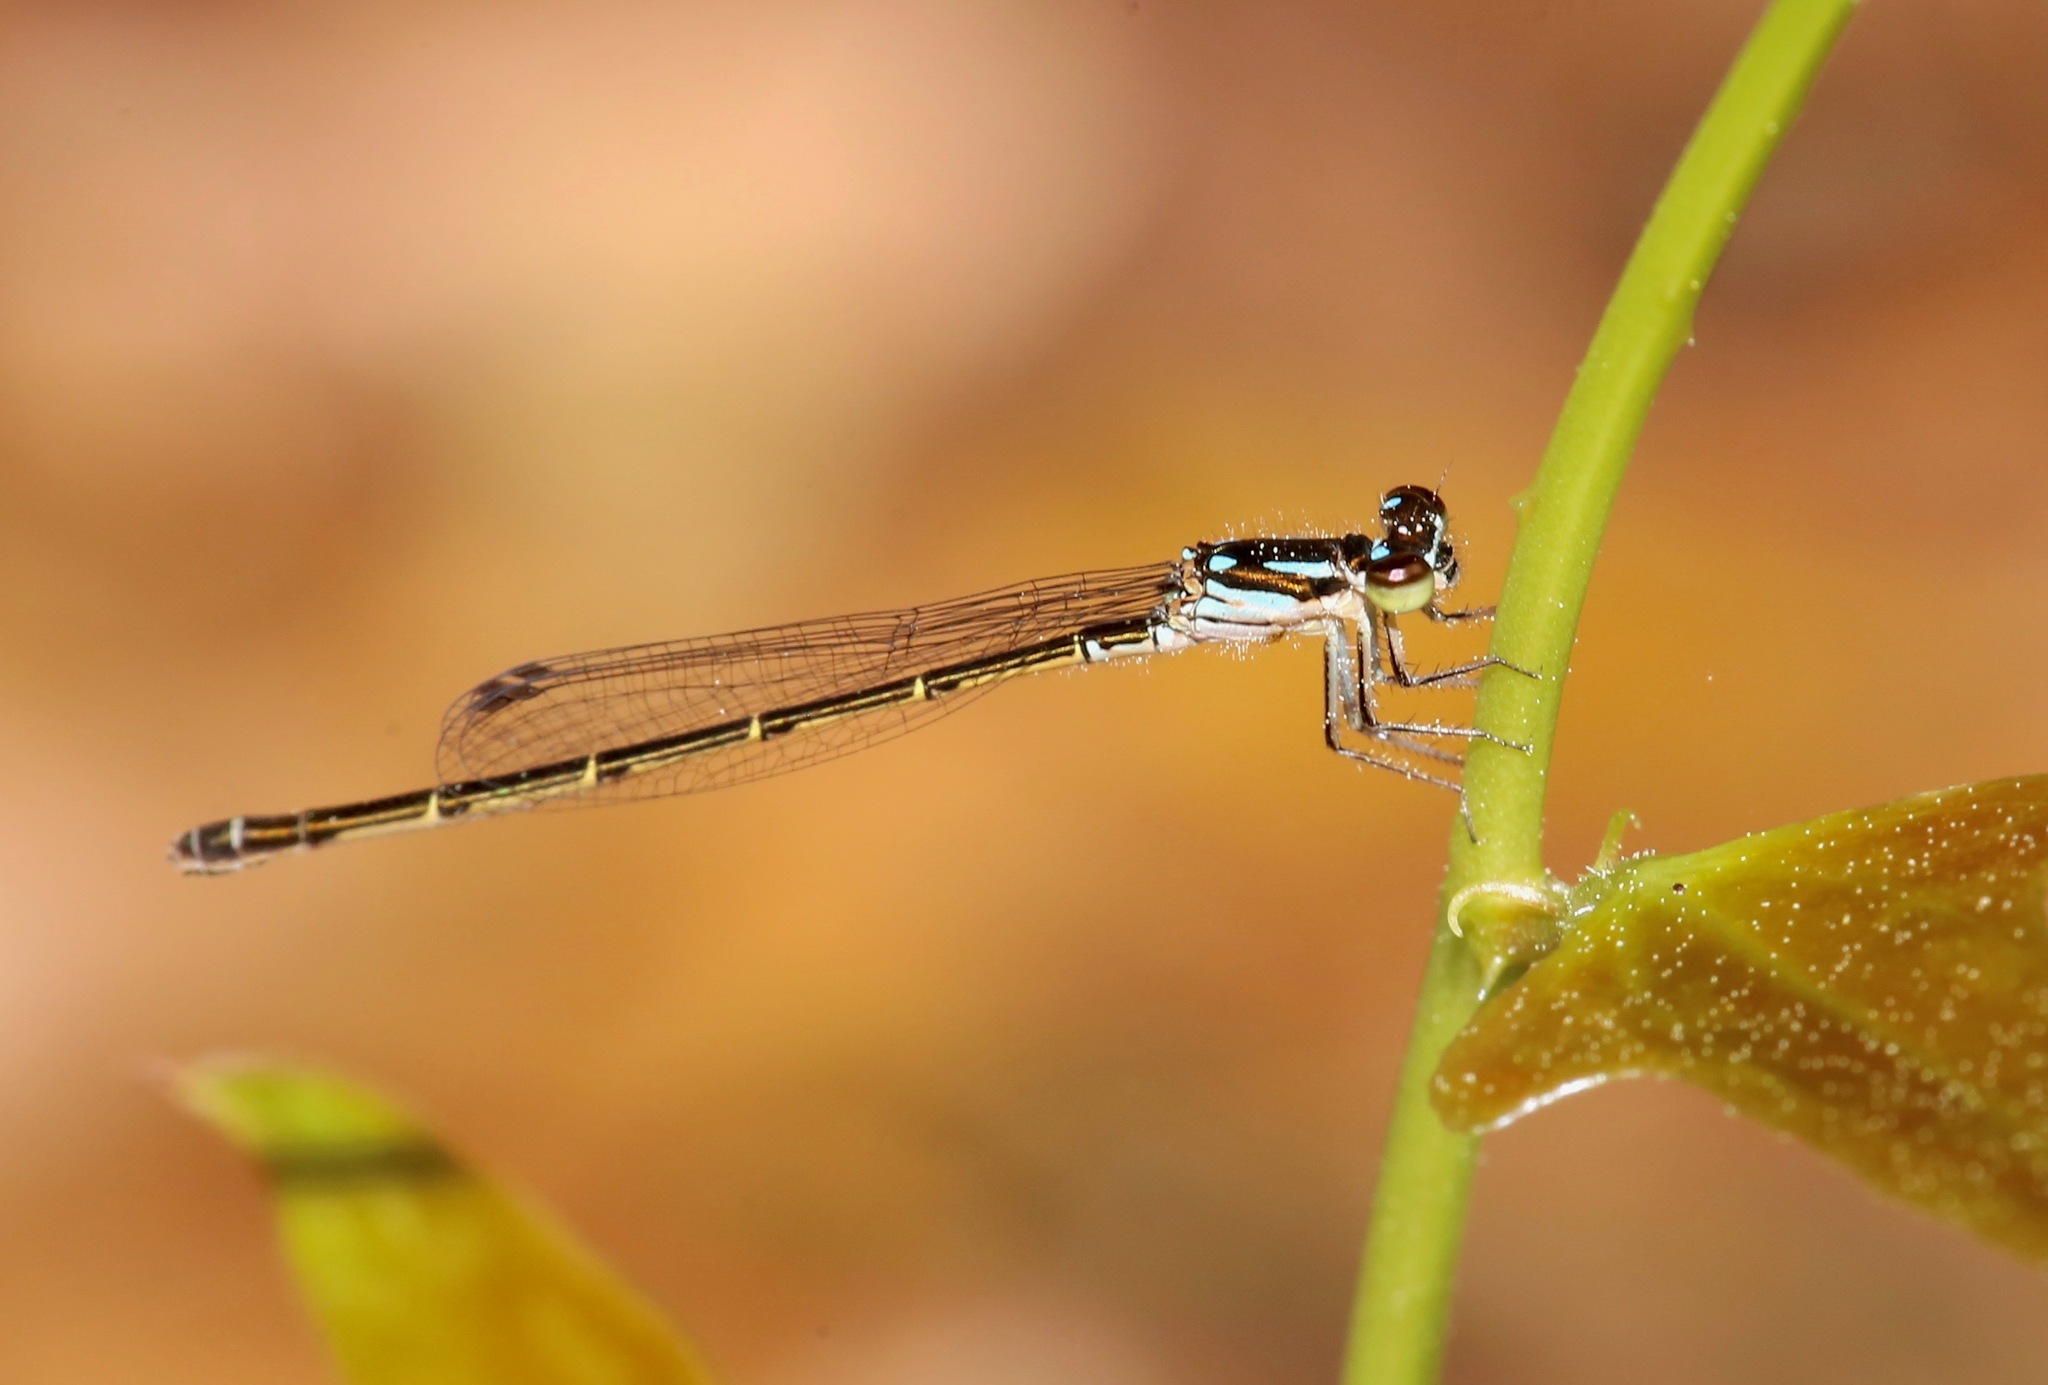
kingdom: Animalia
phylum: Arthropoda
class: Insecta
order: Odonata
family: Coenagrionidae
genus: Ischnura
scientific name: Ischnura posita
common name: Fragile forktail
